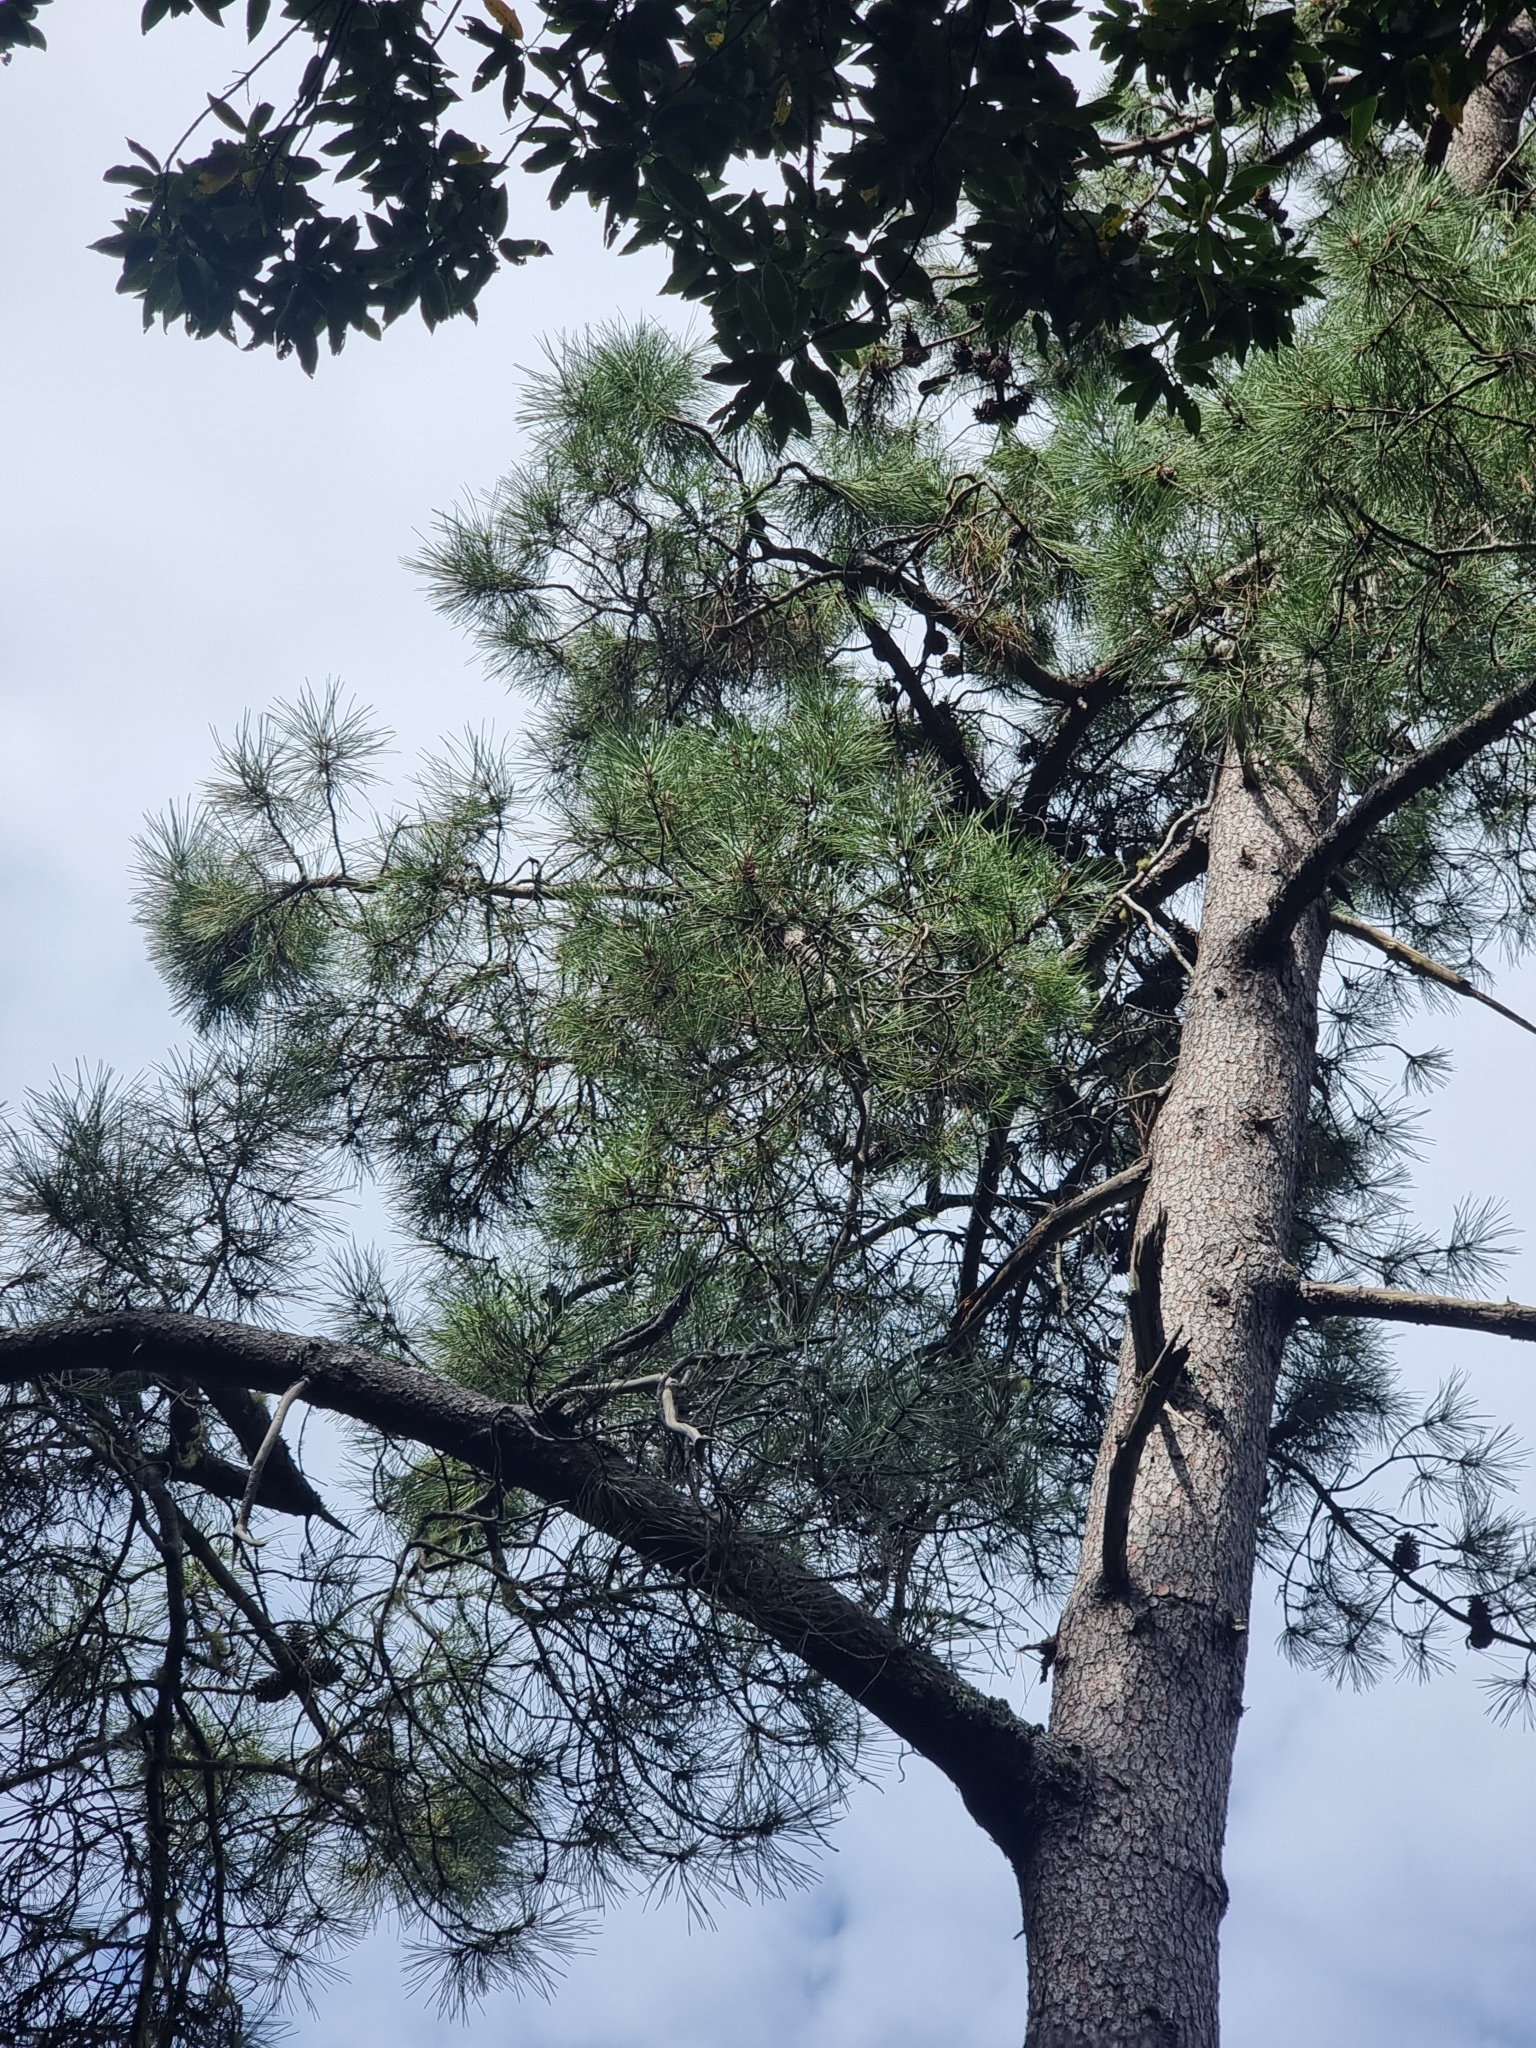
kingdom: Plantae
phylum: Tracheophyta
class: Pinopsida
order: Pinales
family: Pinaceae
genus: Pinus
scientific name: Pinus pinaster
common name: Maritime pine
